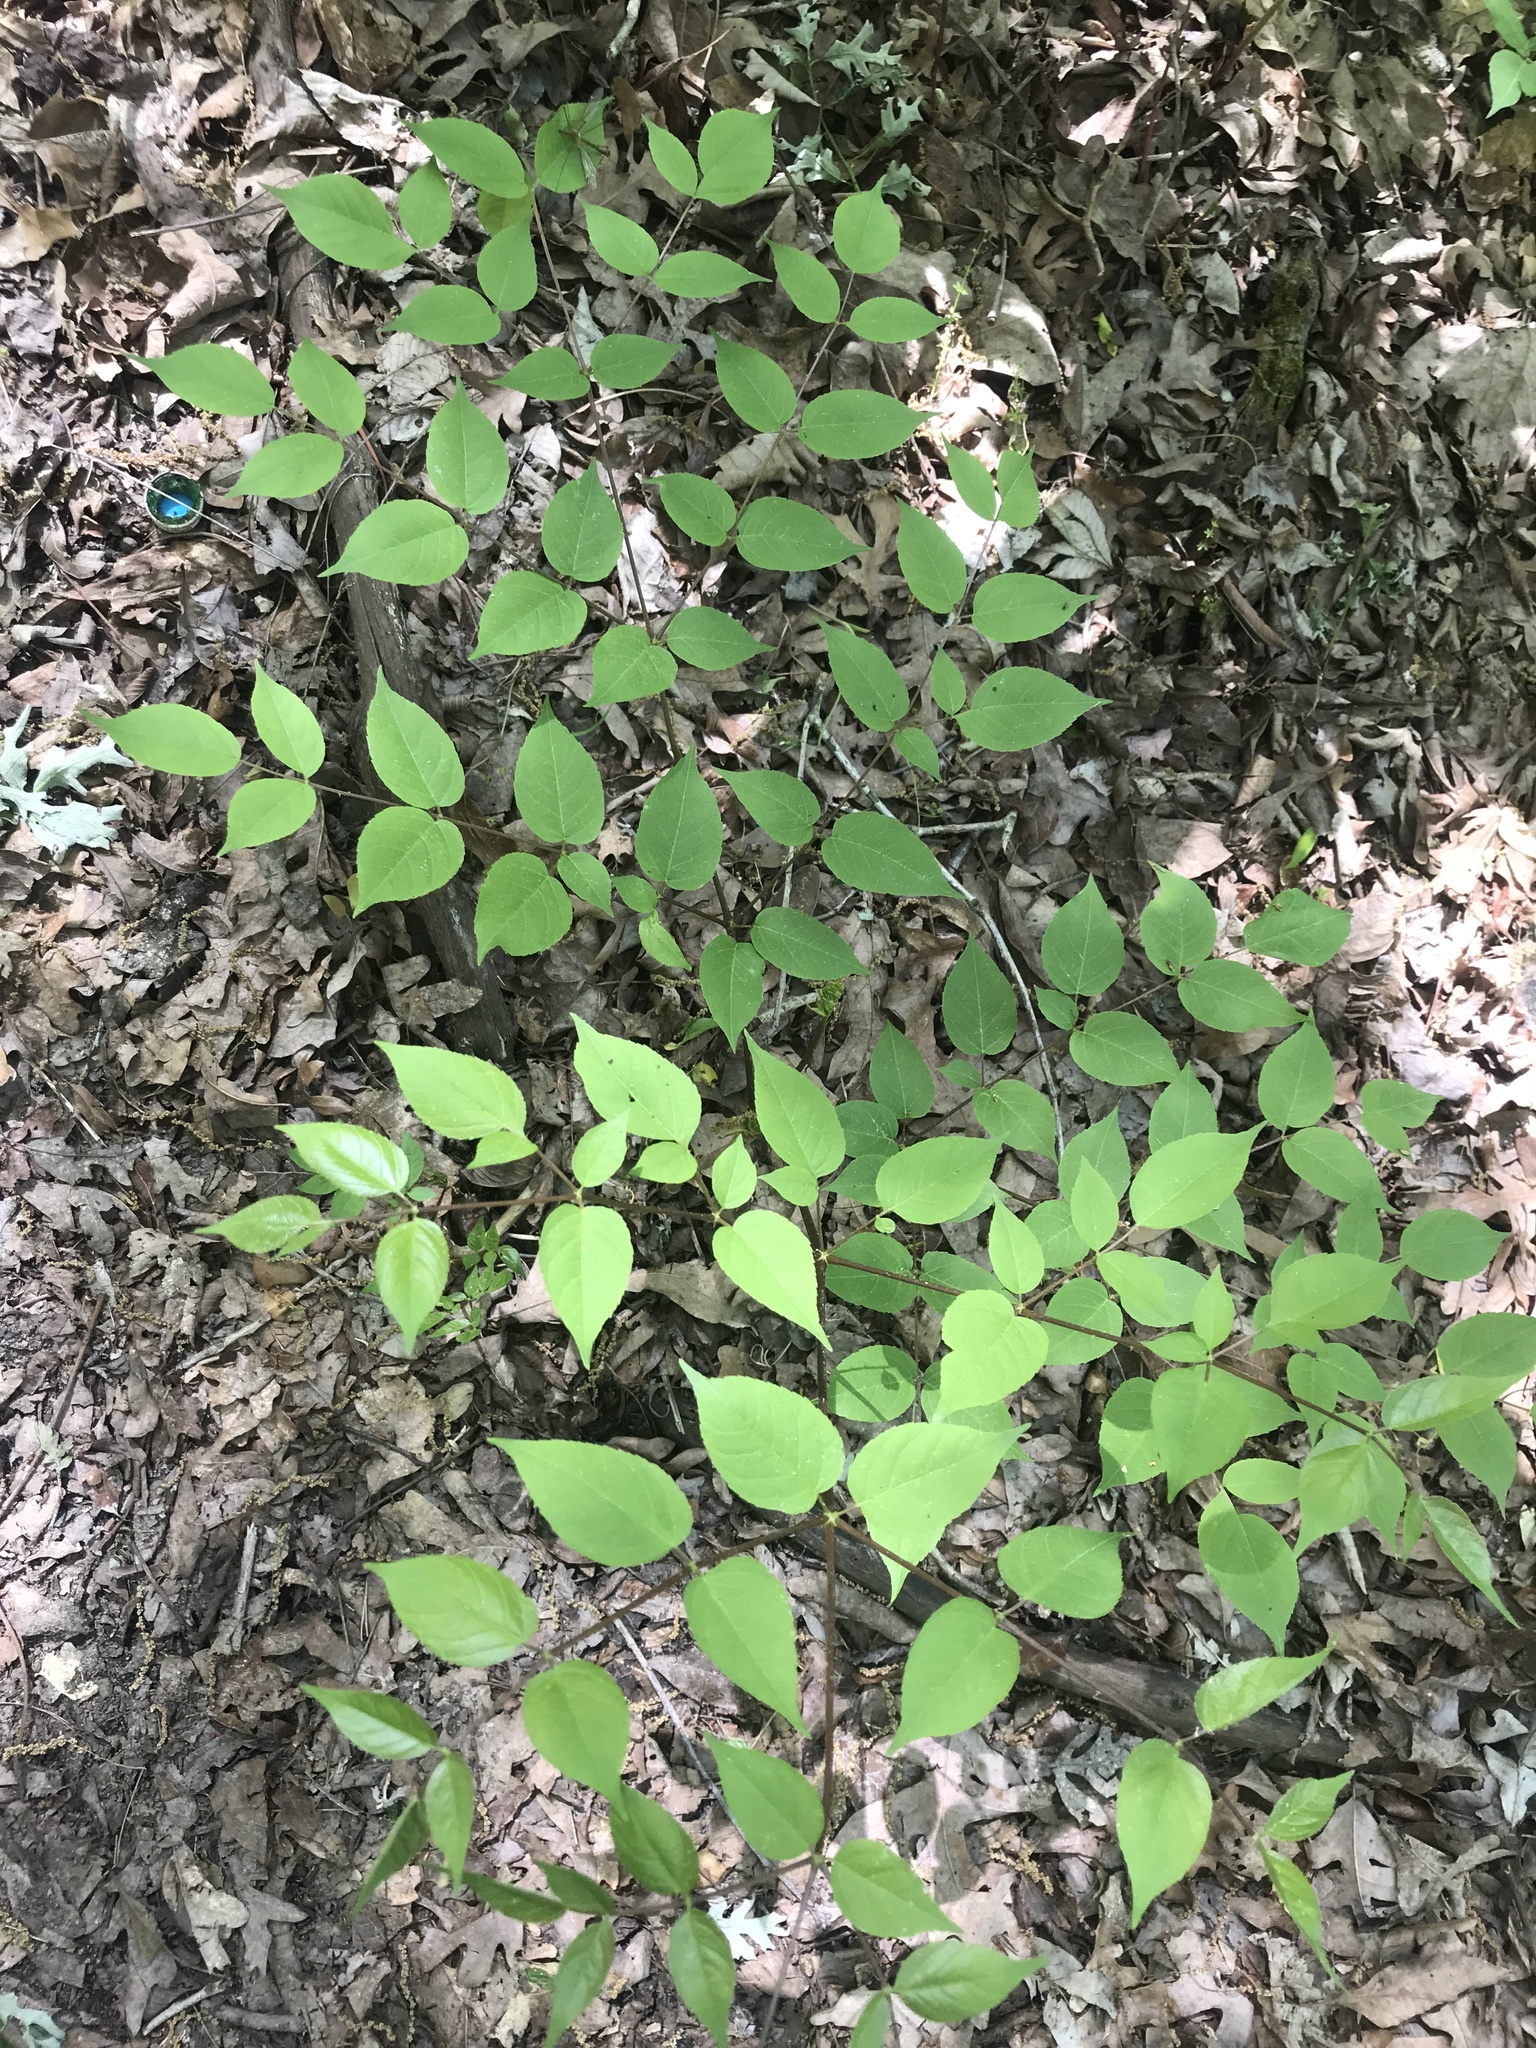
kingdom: Plantae
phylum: Tracheophyta
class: Magnoliopsida
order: Apiales
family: Araliaceae
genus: Aralia
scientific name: Aralia spinosa
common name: Hercules'-club
